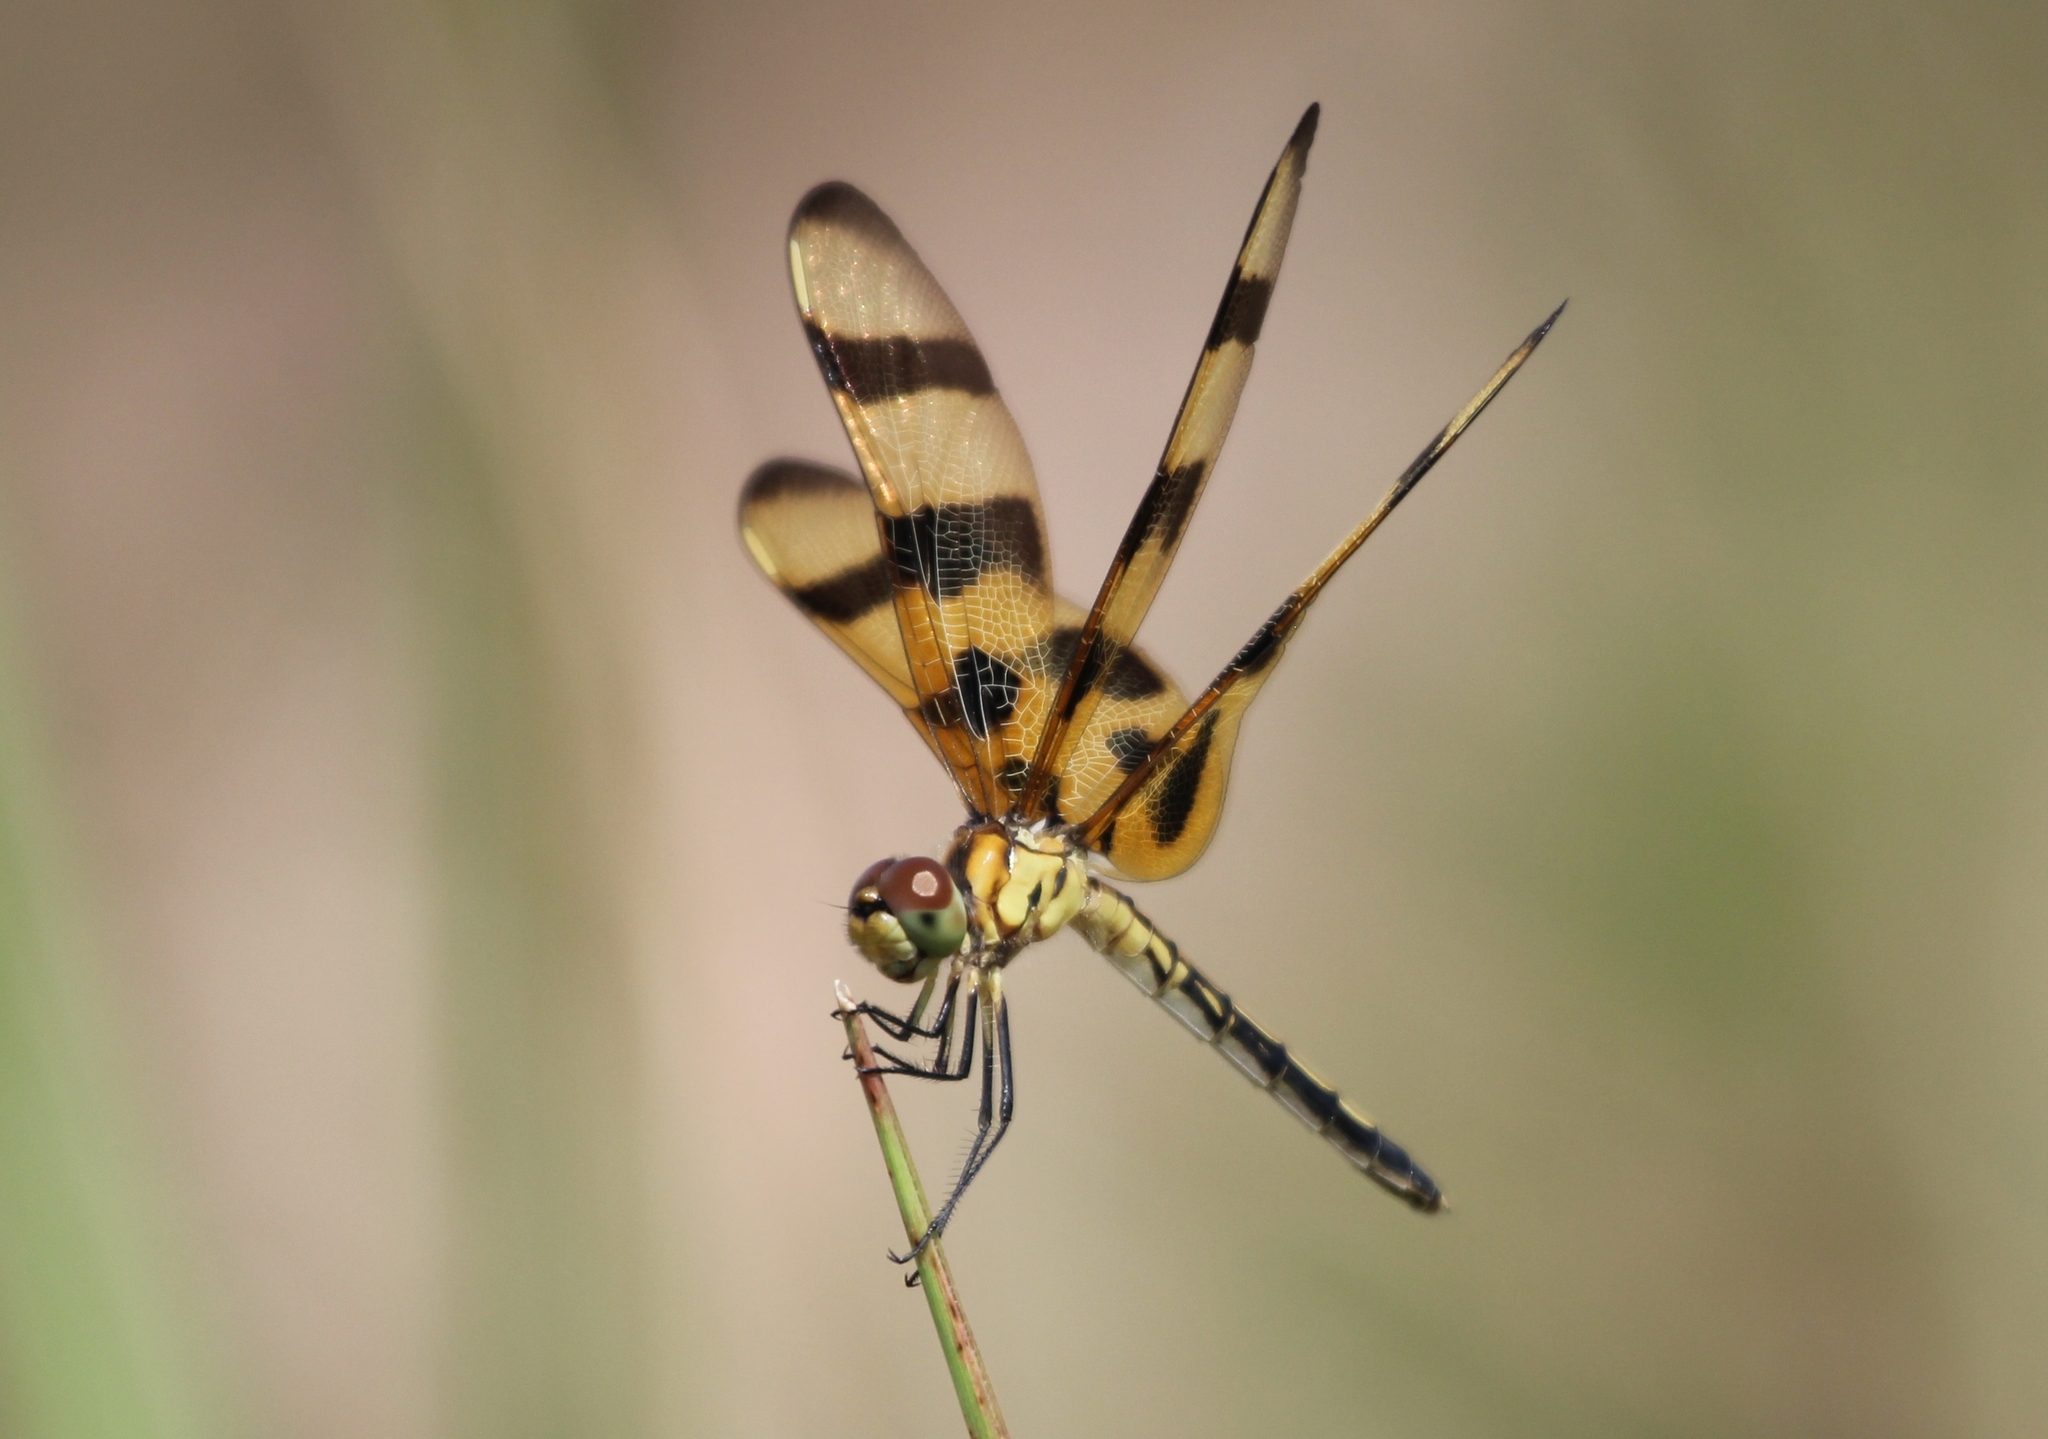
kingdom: Animalia
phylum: Arthropoda
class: Insecta
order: Odonata
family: Libellulidae
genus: Celithemis
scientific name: Celithemis eponina
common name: Halloween pennant
